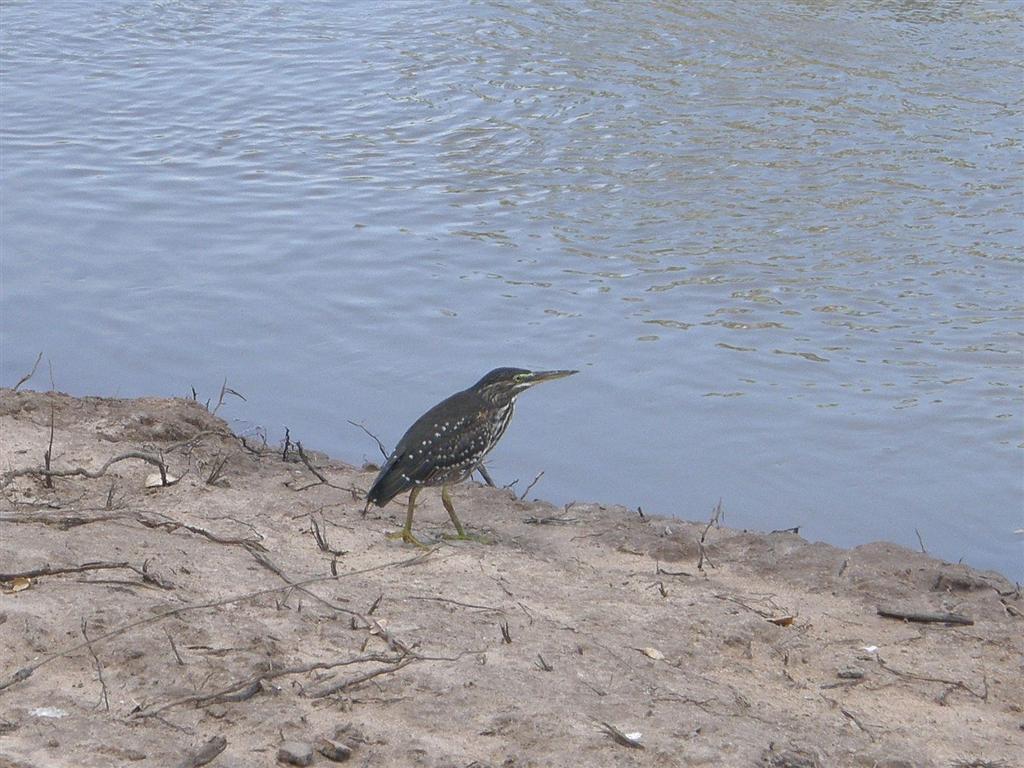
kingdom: Animalia
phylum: Chordata
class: Aves
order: Pelecaniformes
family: Ardeidae
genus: Butorides
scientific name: Butorides striata
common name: Striated heron
